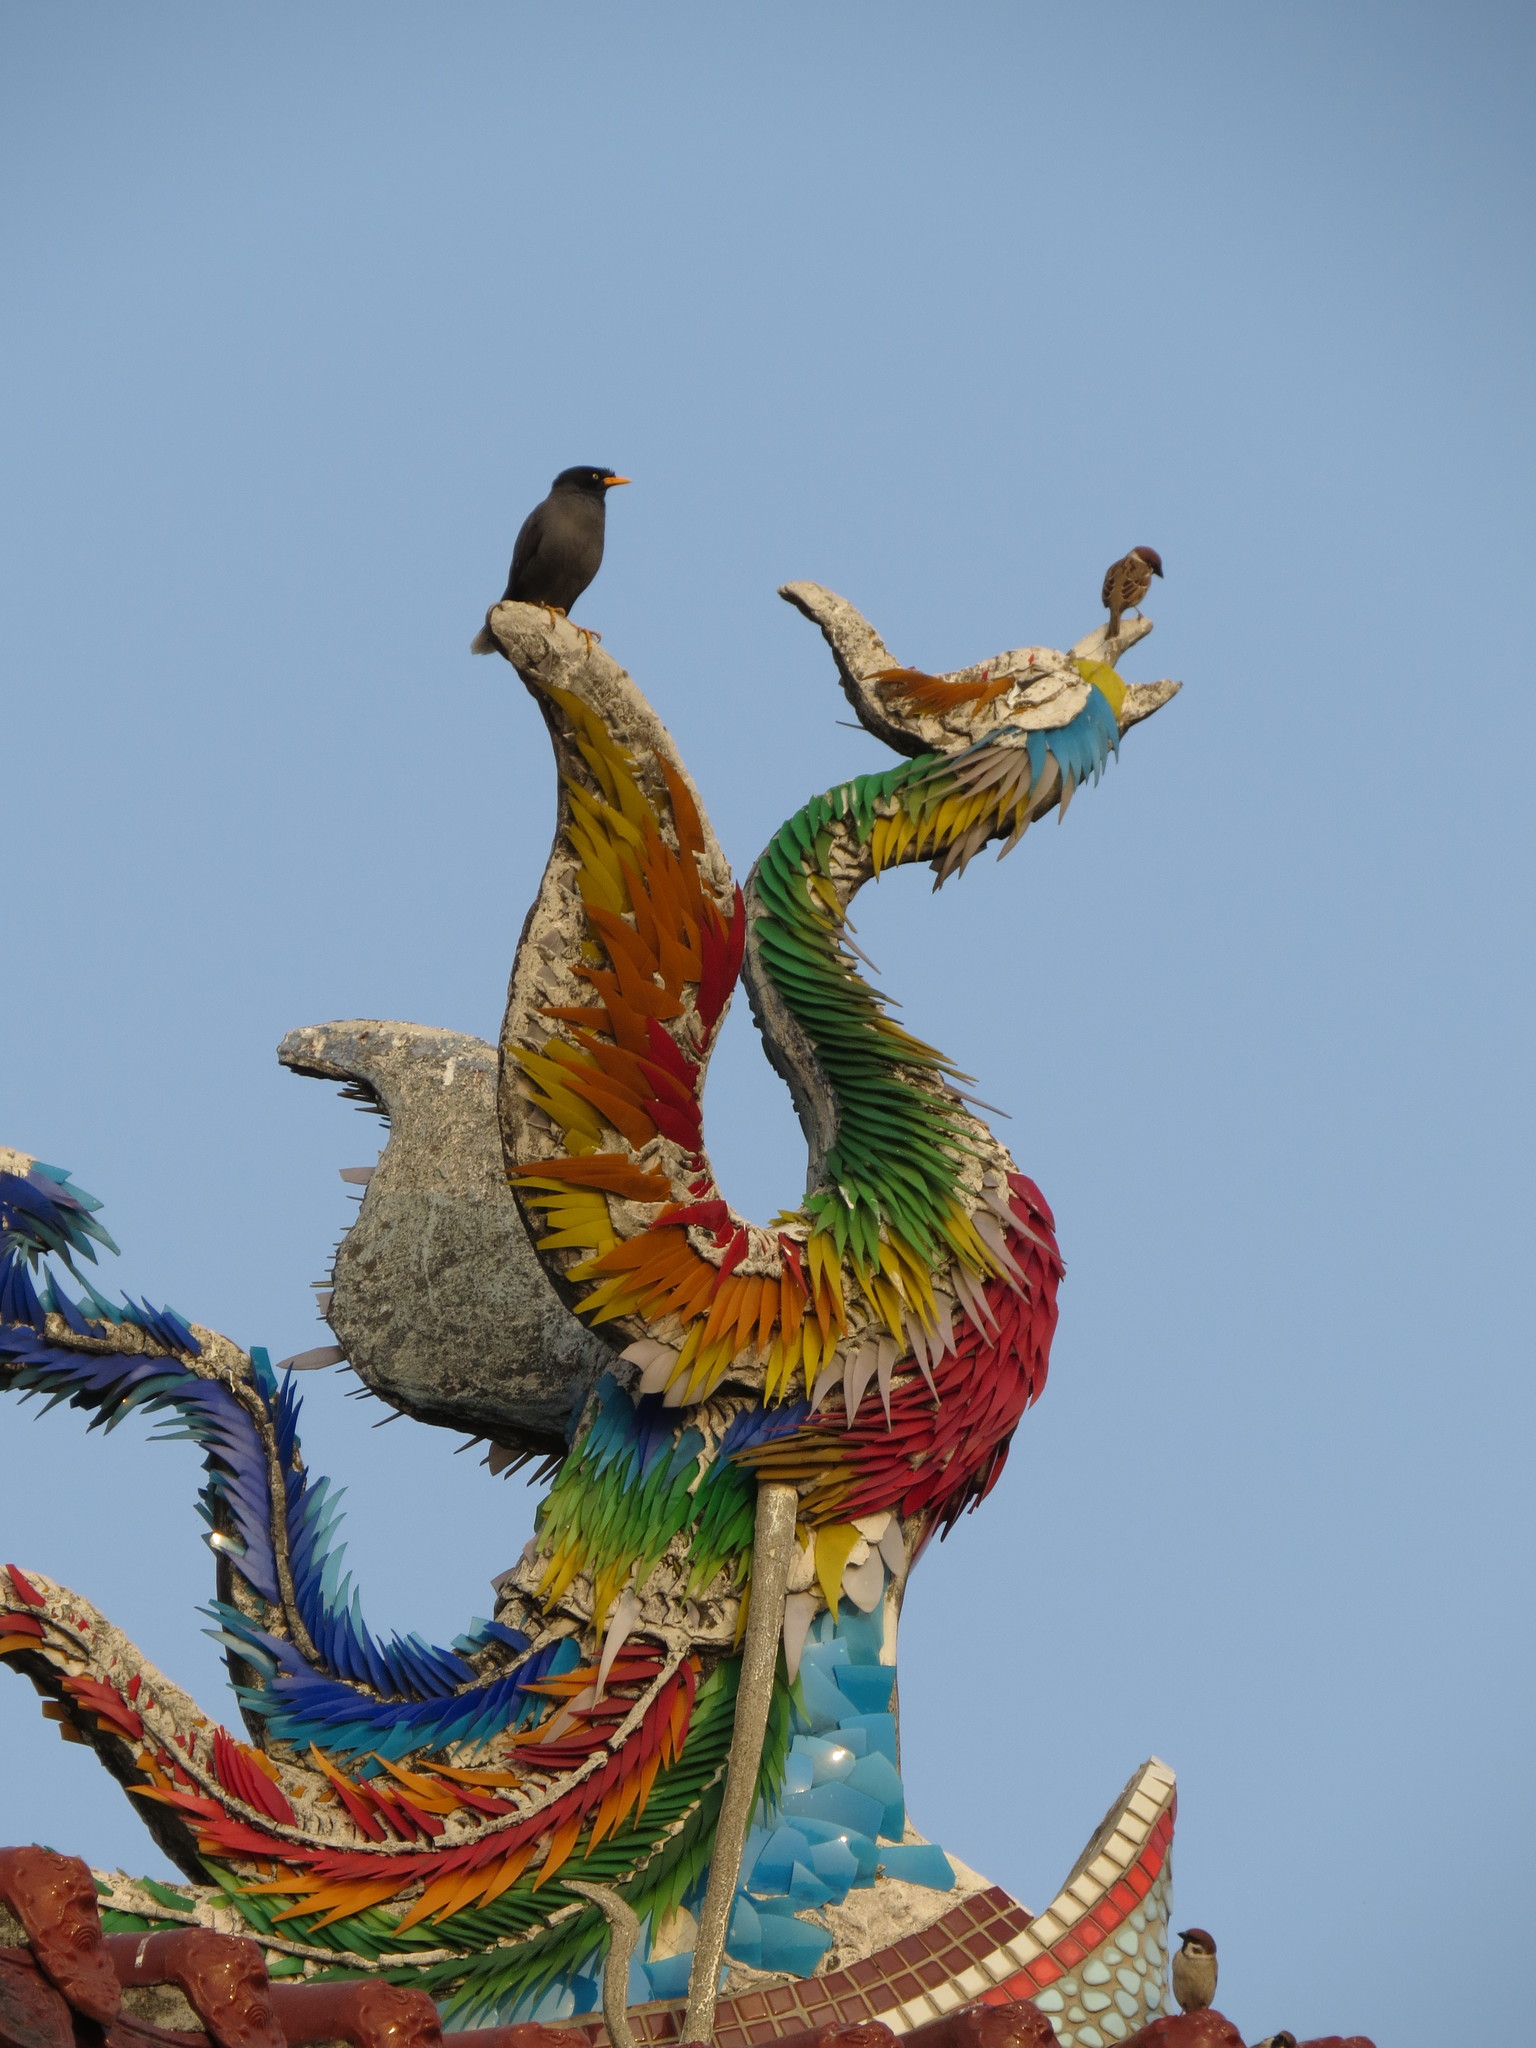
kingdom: Animalia
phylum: Chordata
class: Aves
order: Passeriformes
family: Sturnidae
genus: Acridotheres
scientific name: Acridotheres javanicus
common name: Javan myna
